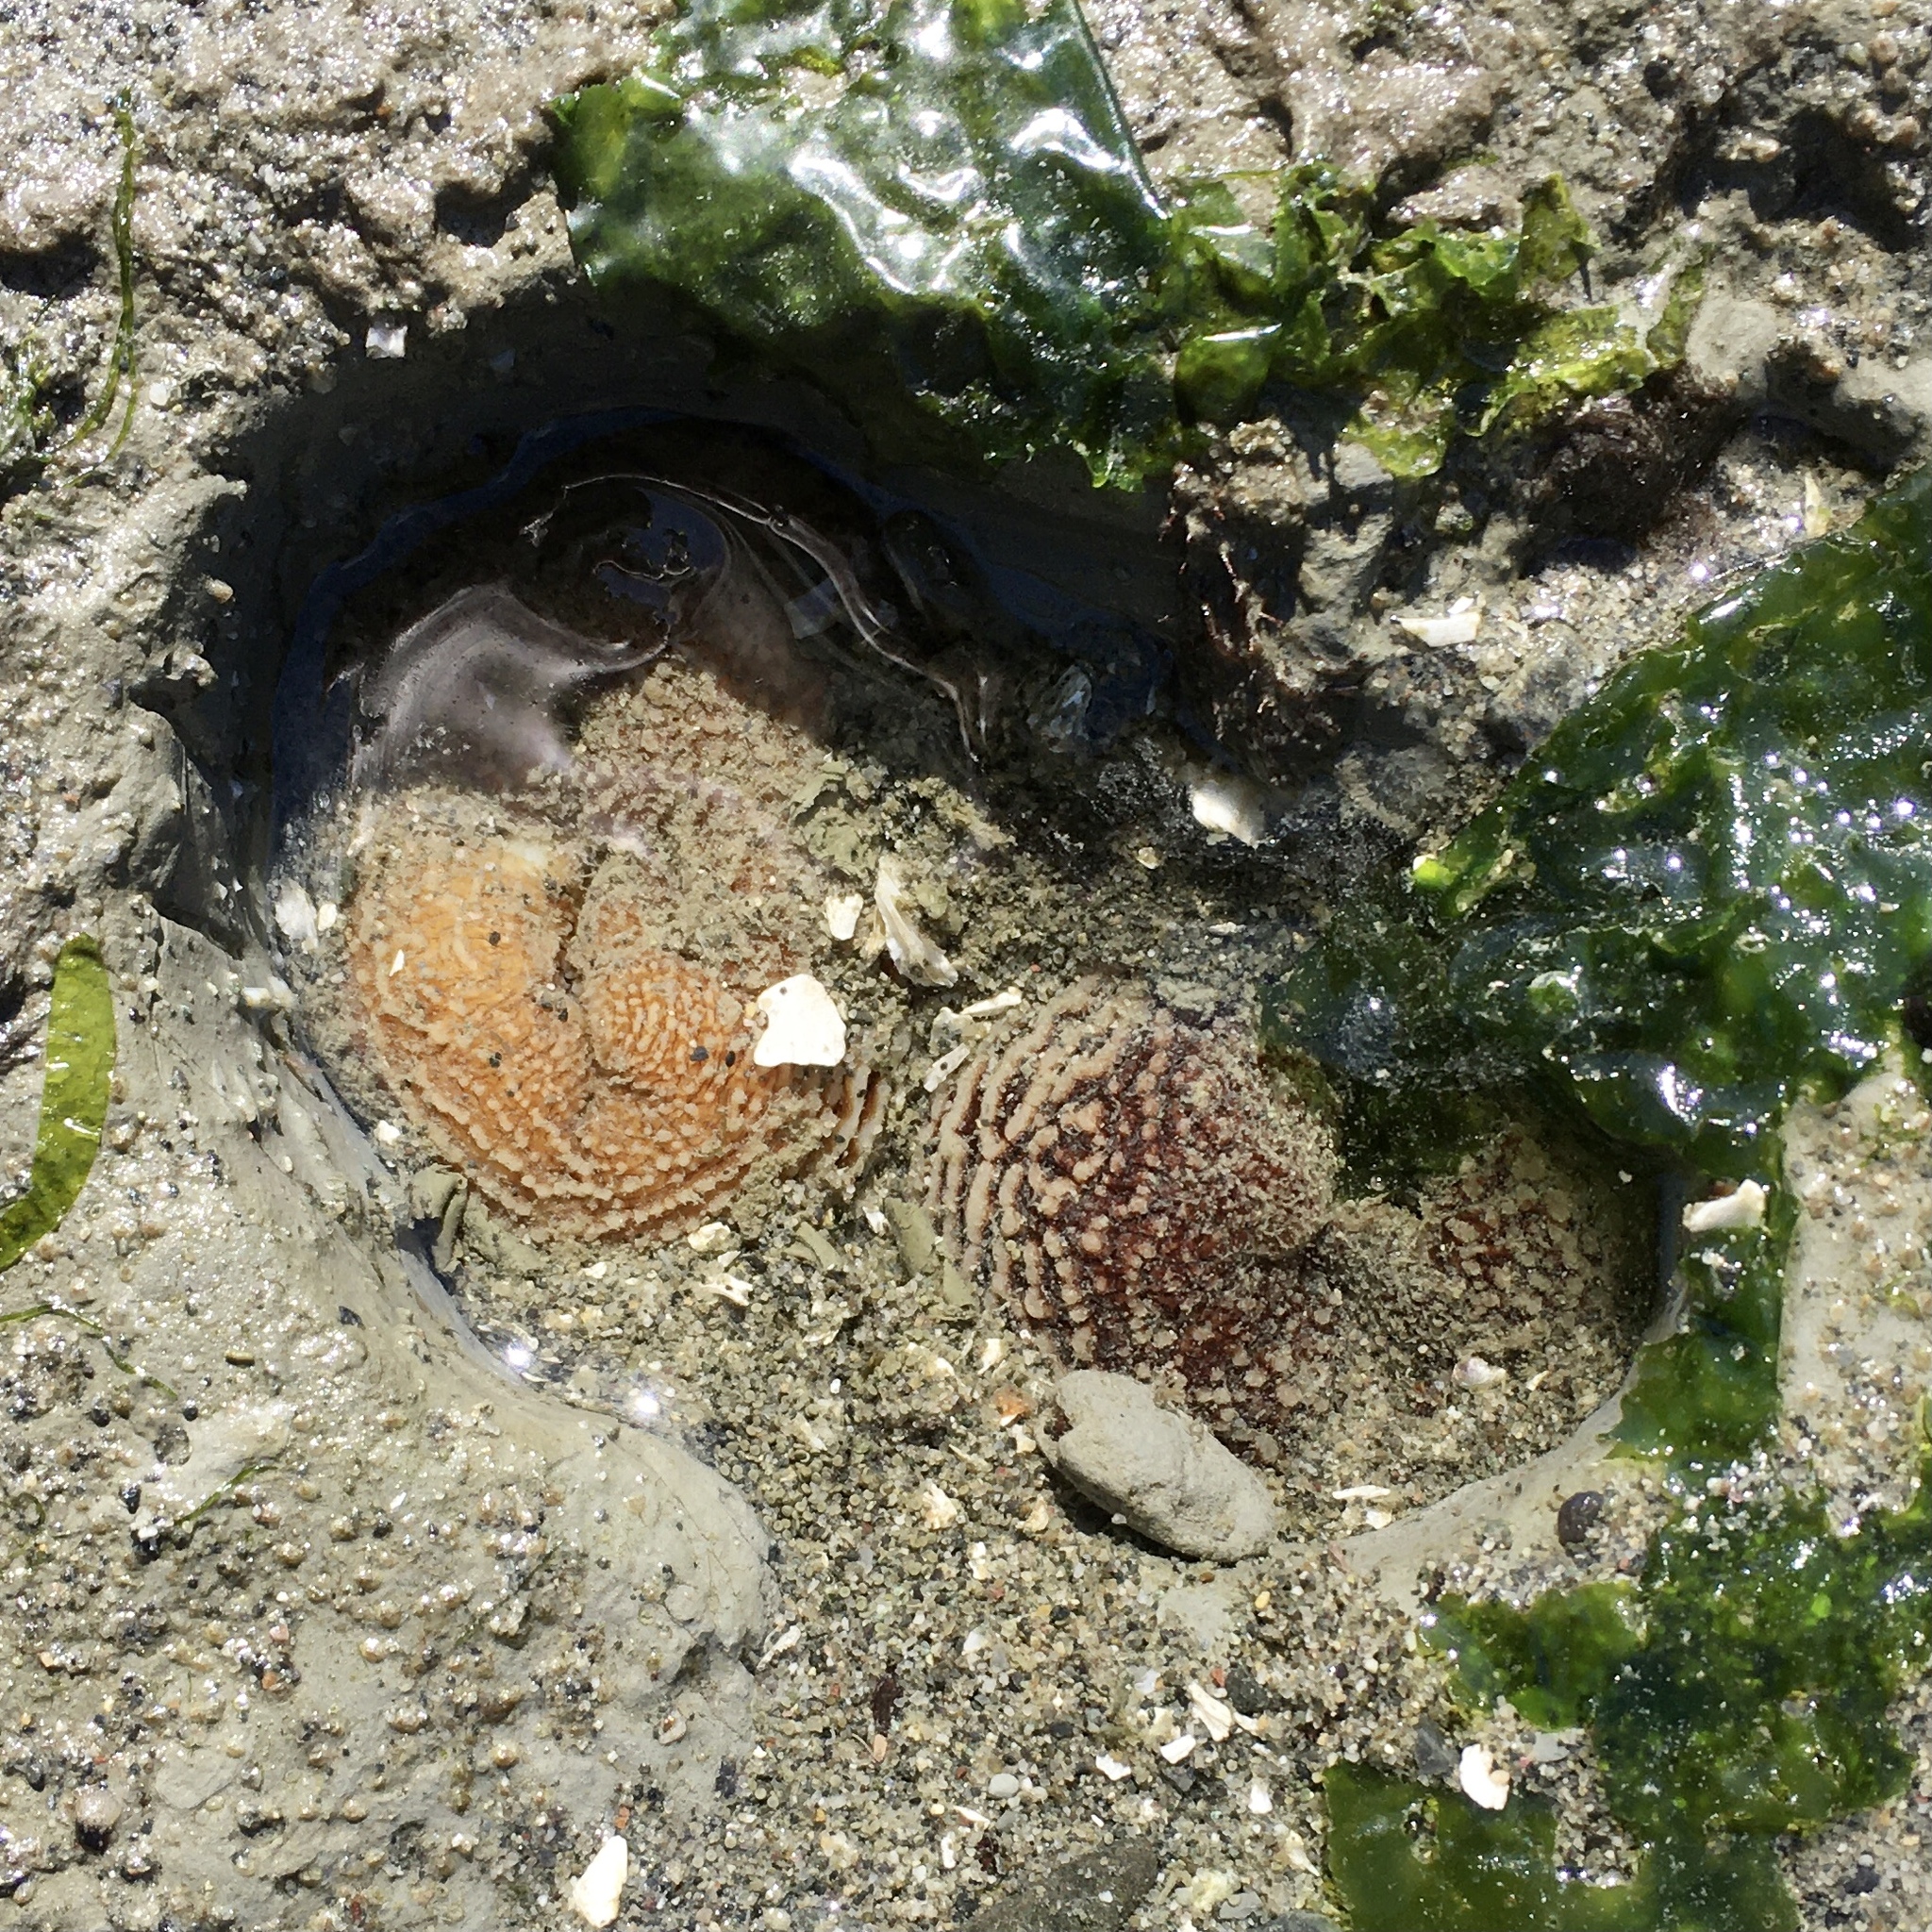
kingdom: Animalia
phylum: Mollusca
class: Bivalvia
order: Myida
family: Pholadidae
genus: Zirfaea
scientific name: Zirfaea pilsbryi
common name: Rough piddock
